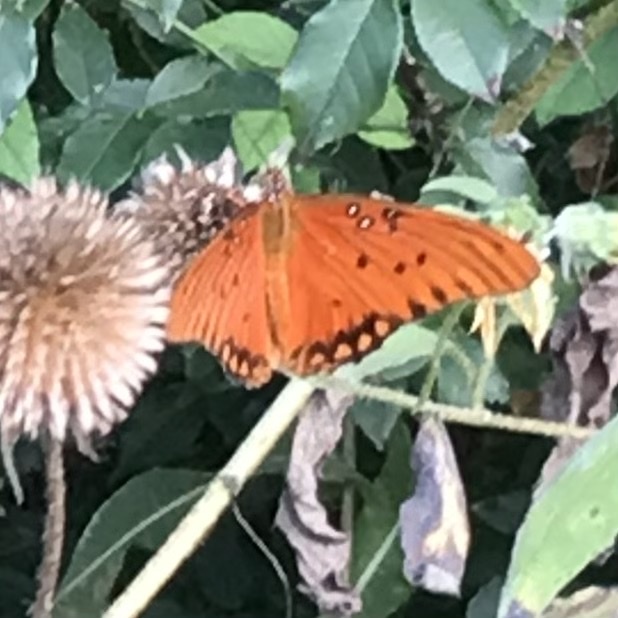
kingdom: Animalia
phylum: Arthropoda
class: Insecta
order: Lepidoptera
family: Nymphalidae
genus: Dione
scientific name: Dione vanillae
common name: Gulf fritillary
